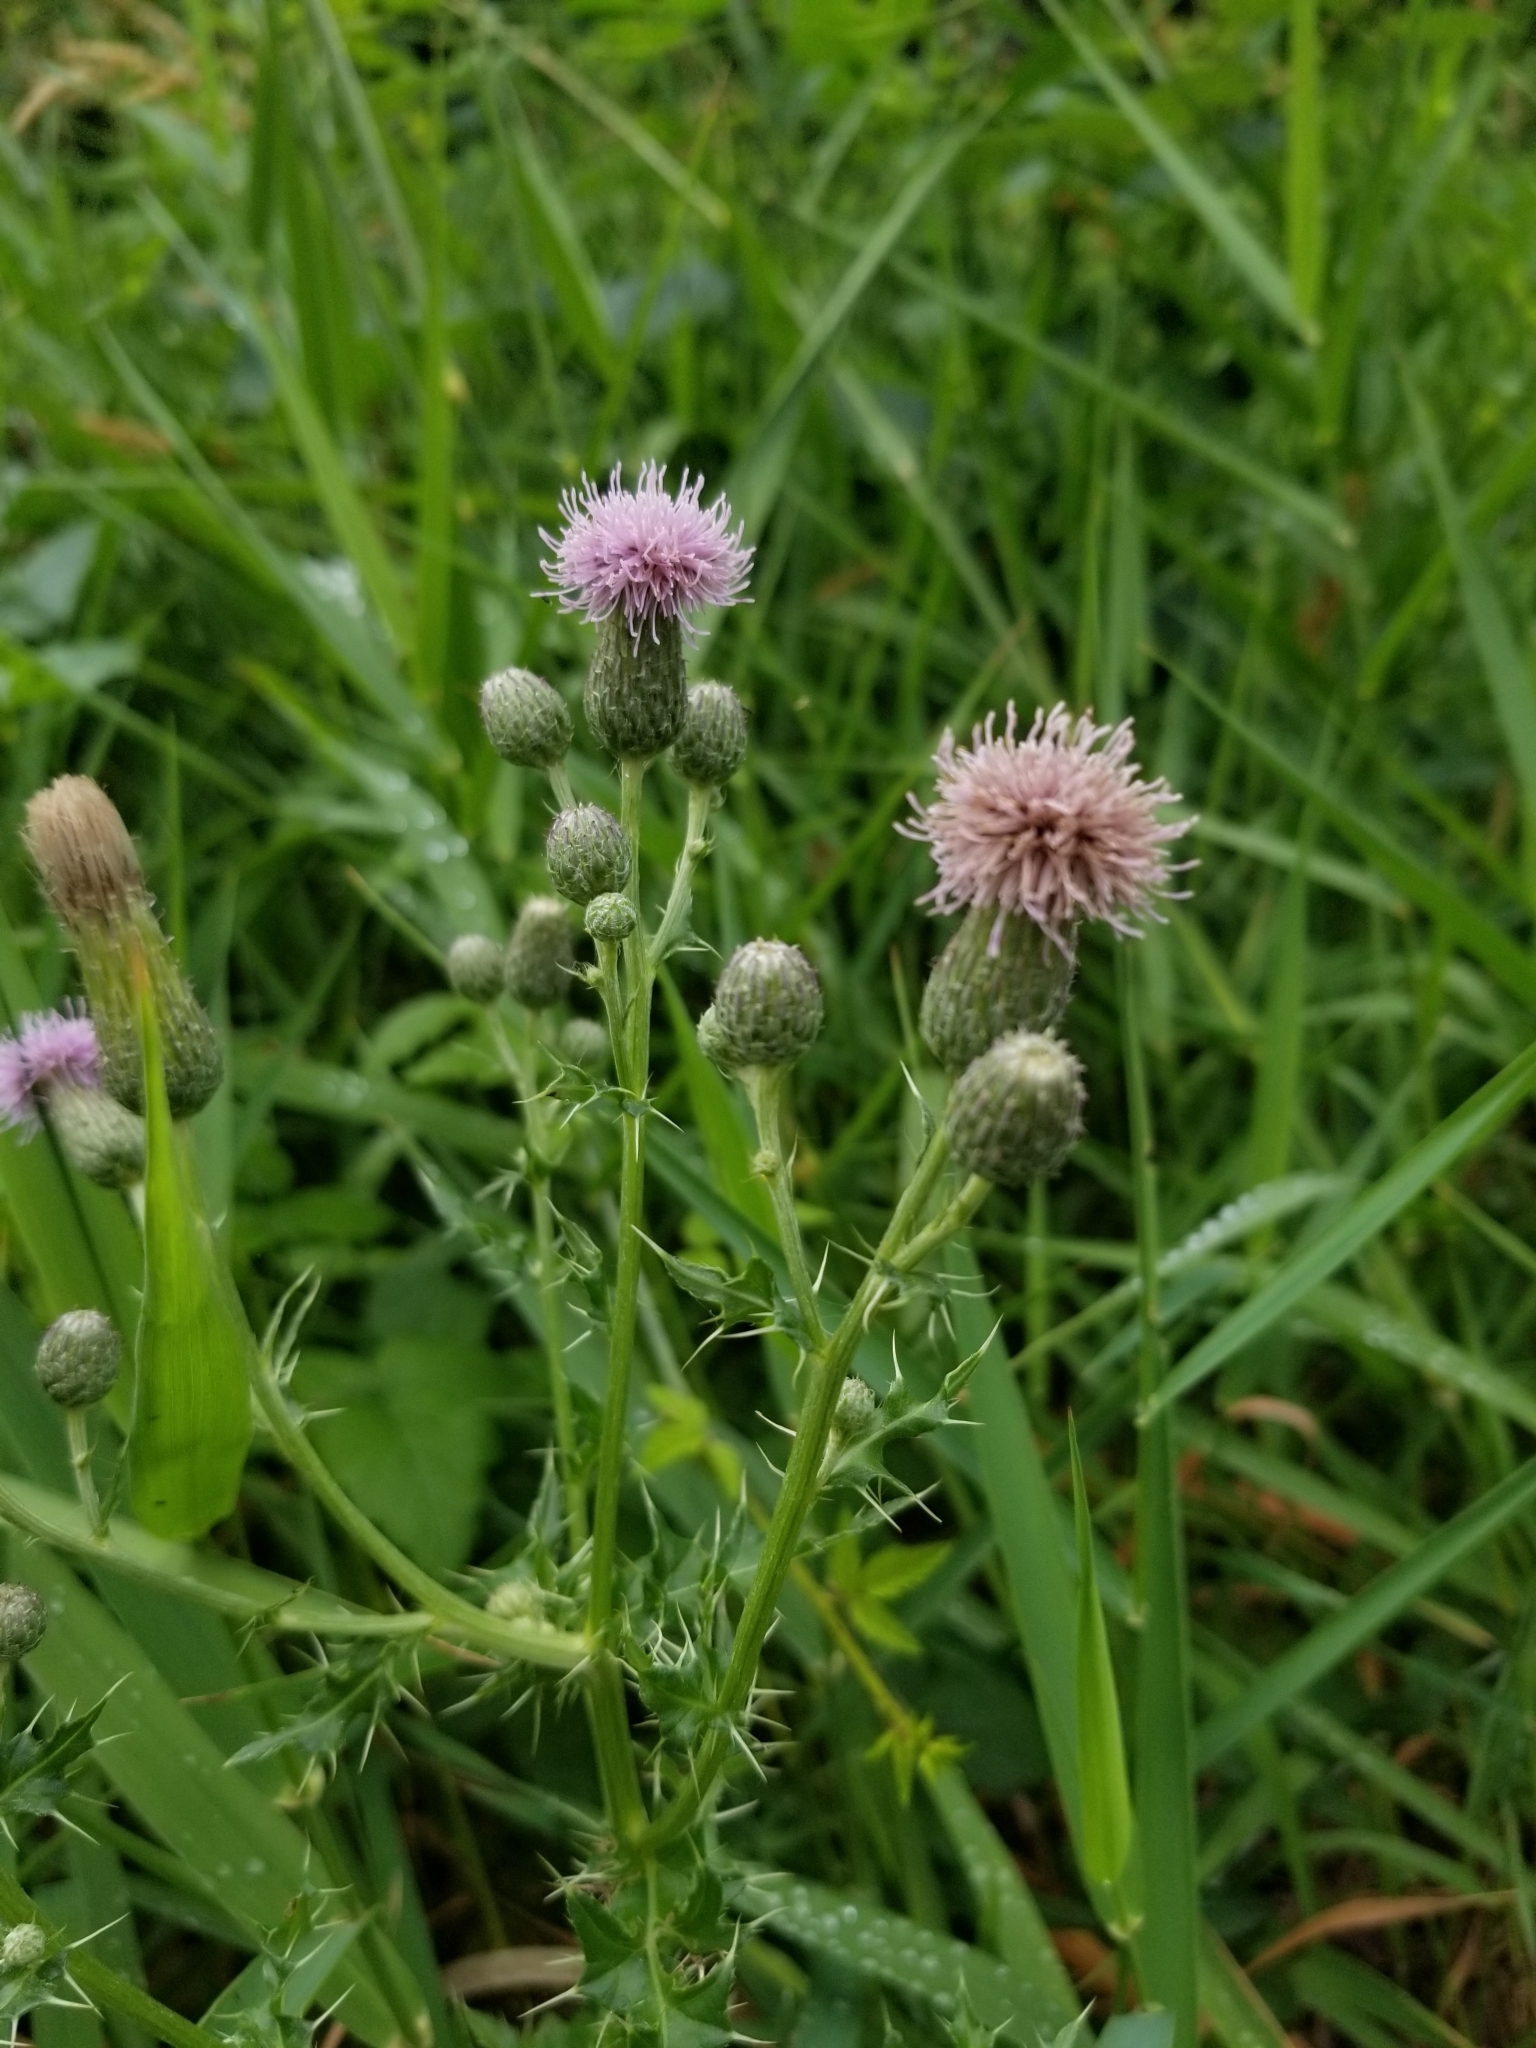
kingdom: Plantae
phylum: Tracheophyta
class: Magnoliopsida
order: Asterales
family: Asteraceae
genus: Cirsium
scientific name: Cirsium arvense
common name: Creeping thistle
